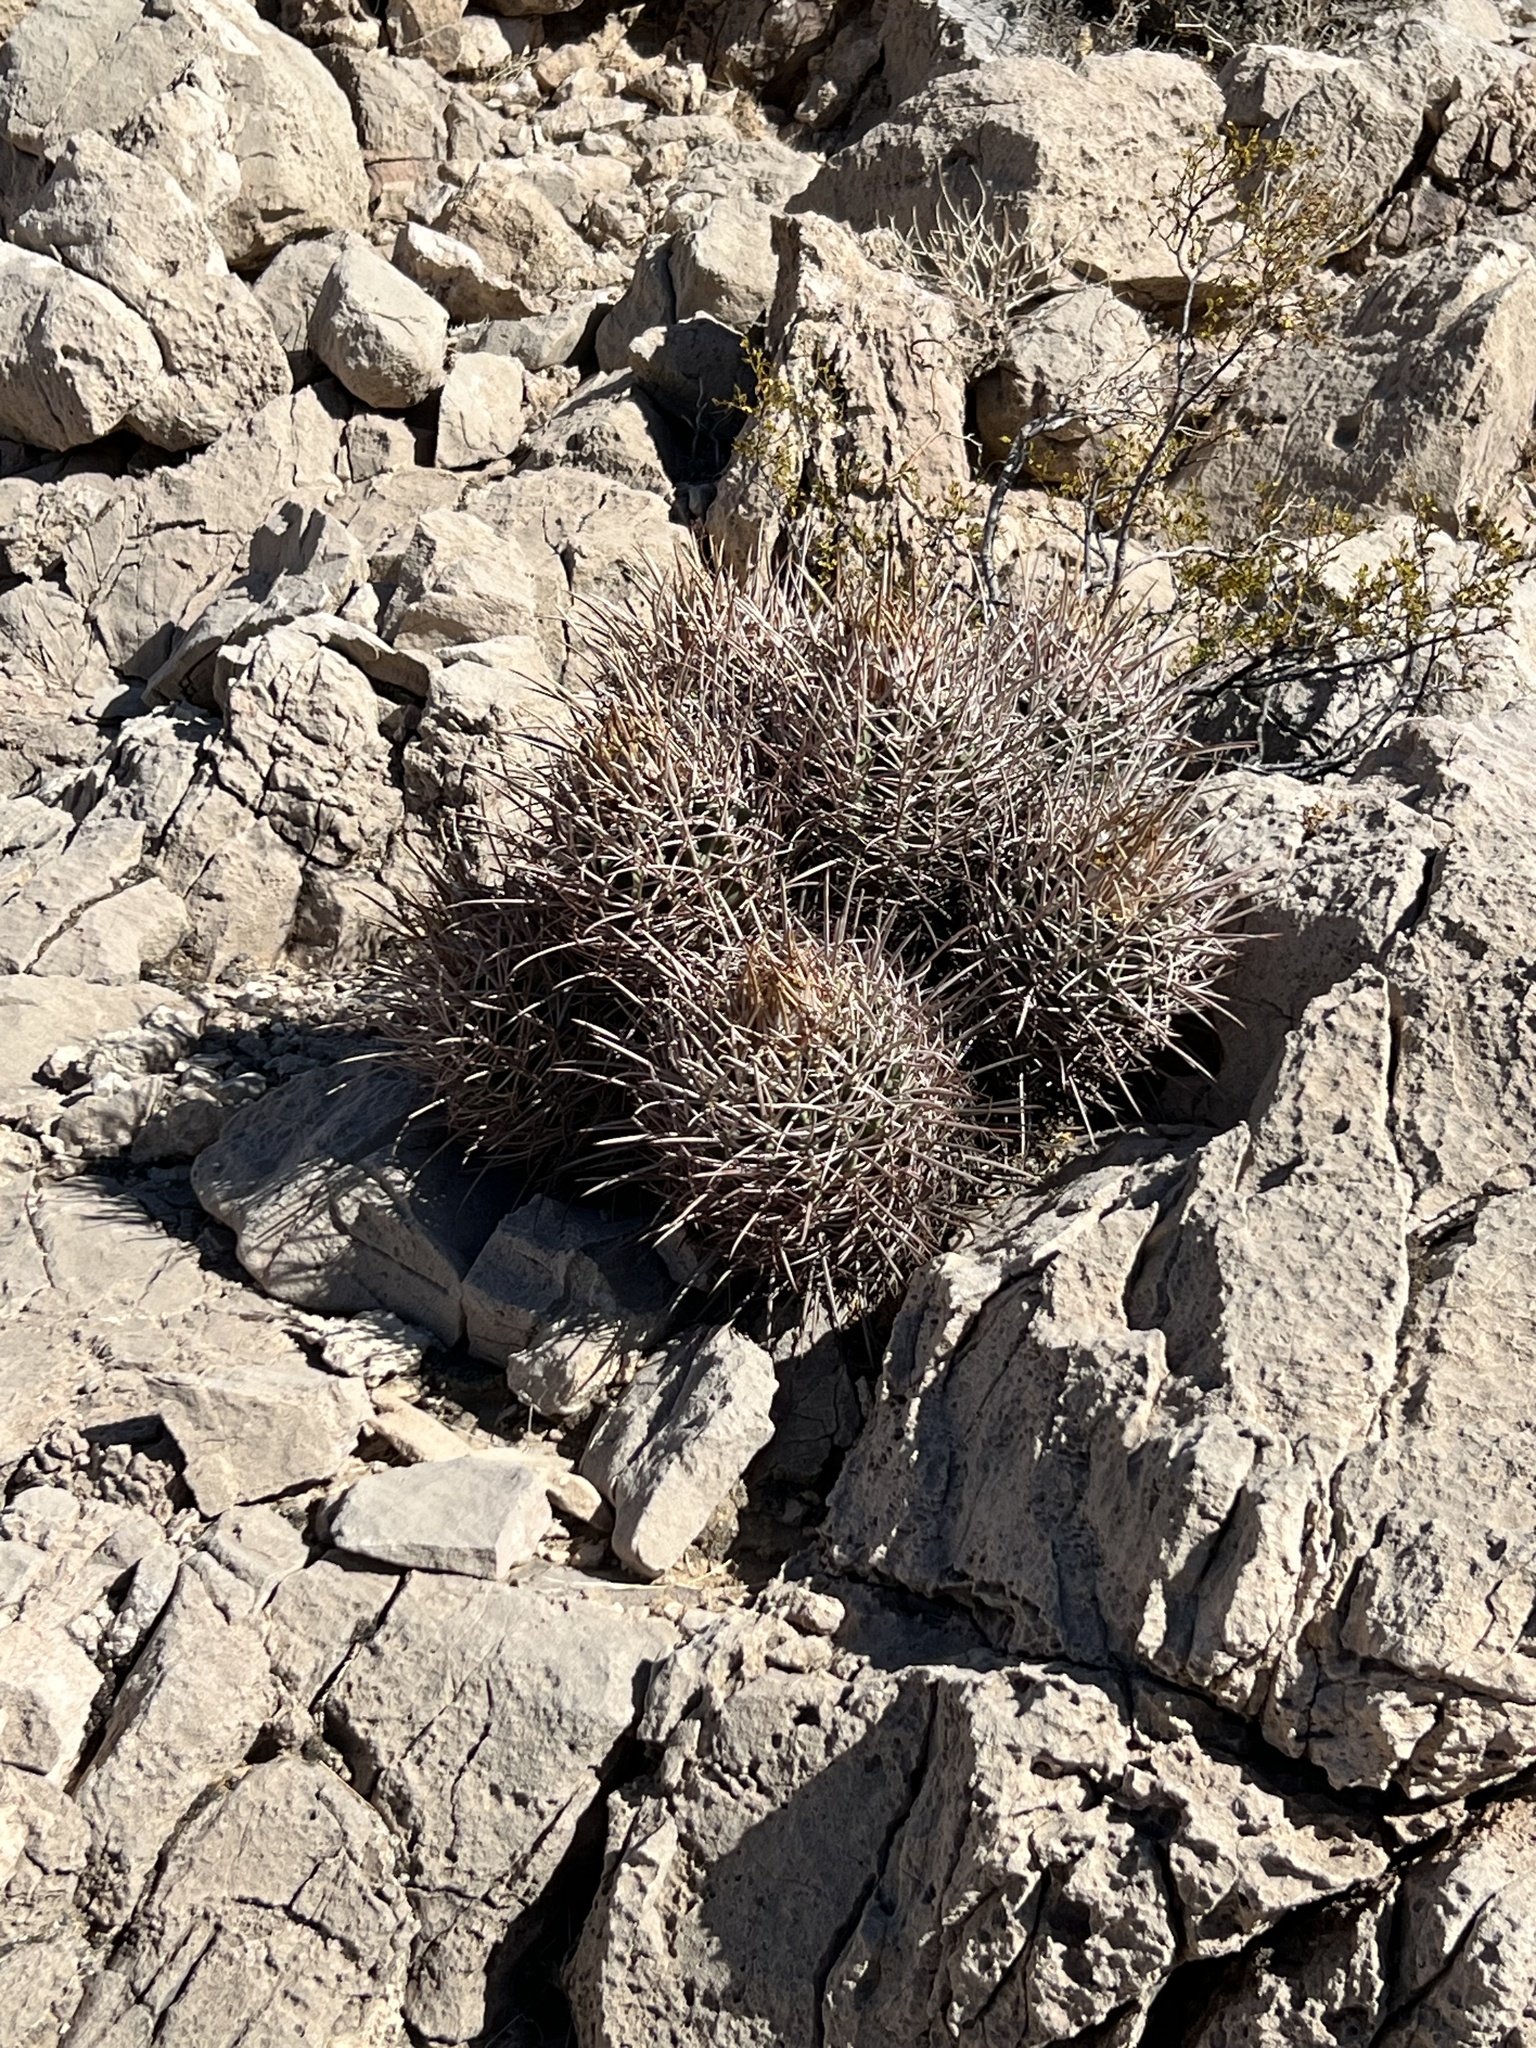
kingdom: Plantae
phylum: Tracheophyta
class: Magnoliopsida
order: Caryophyllales
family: Cactaceae
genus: Echinocactus
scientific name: Echinocactus polycephalus
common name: Cottontop cactus
